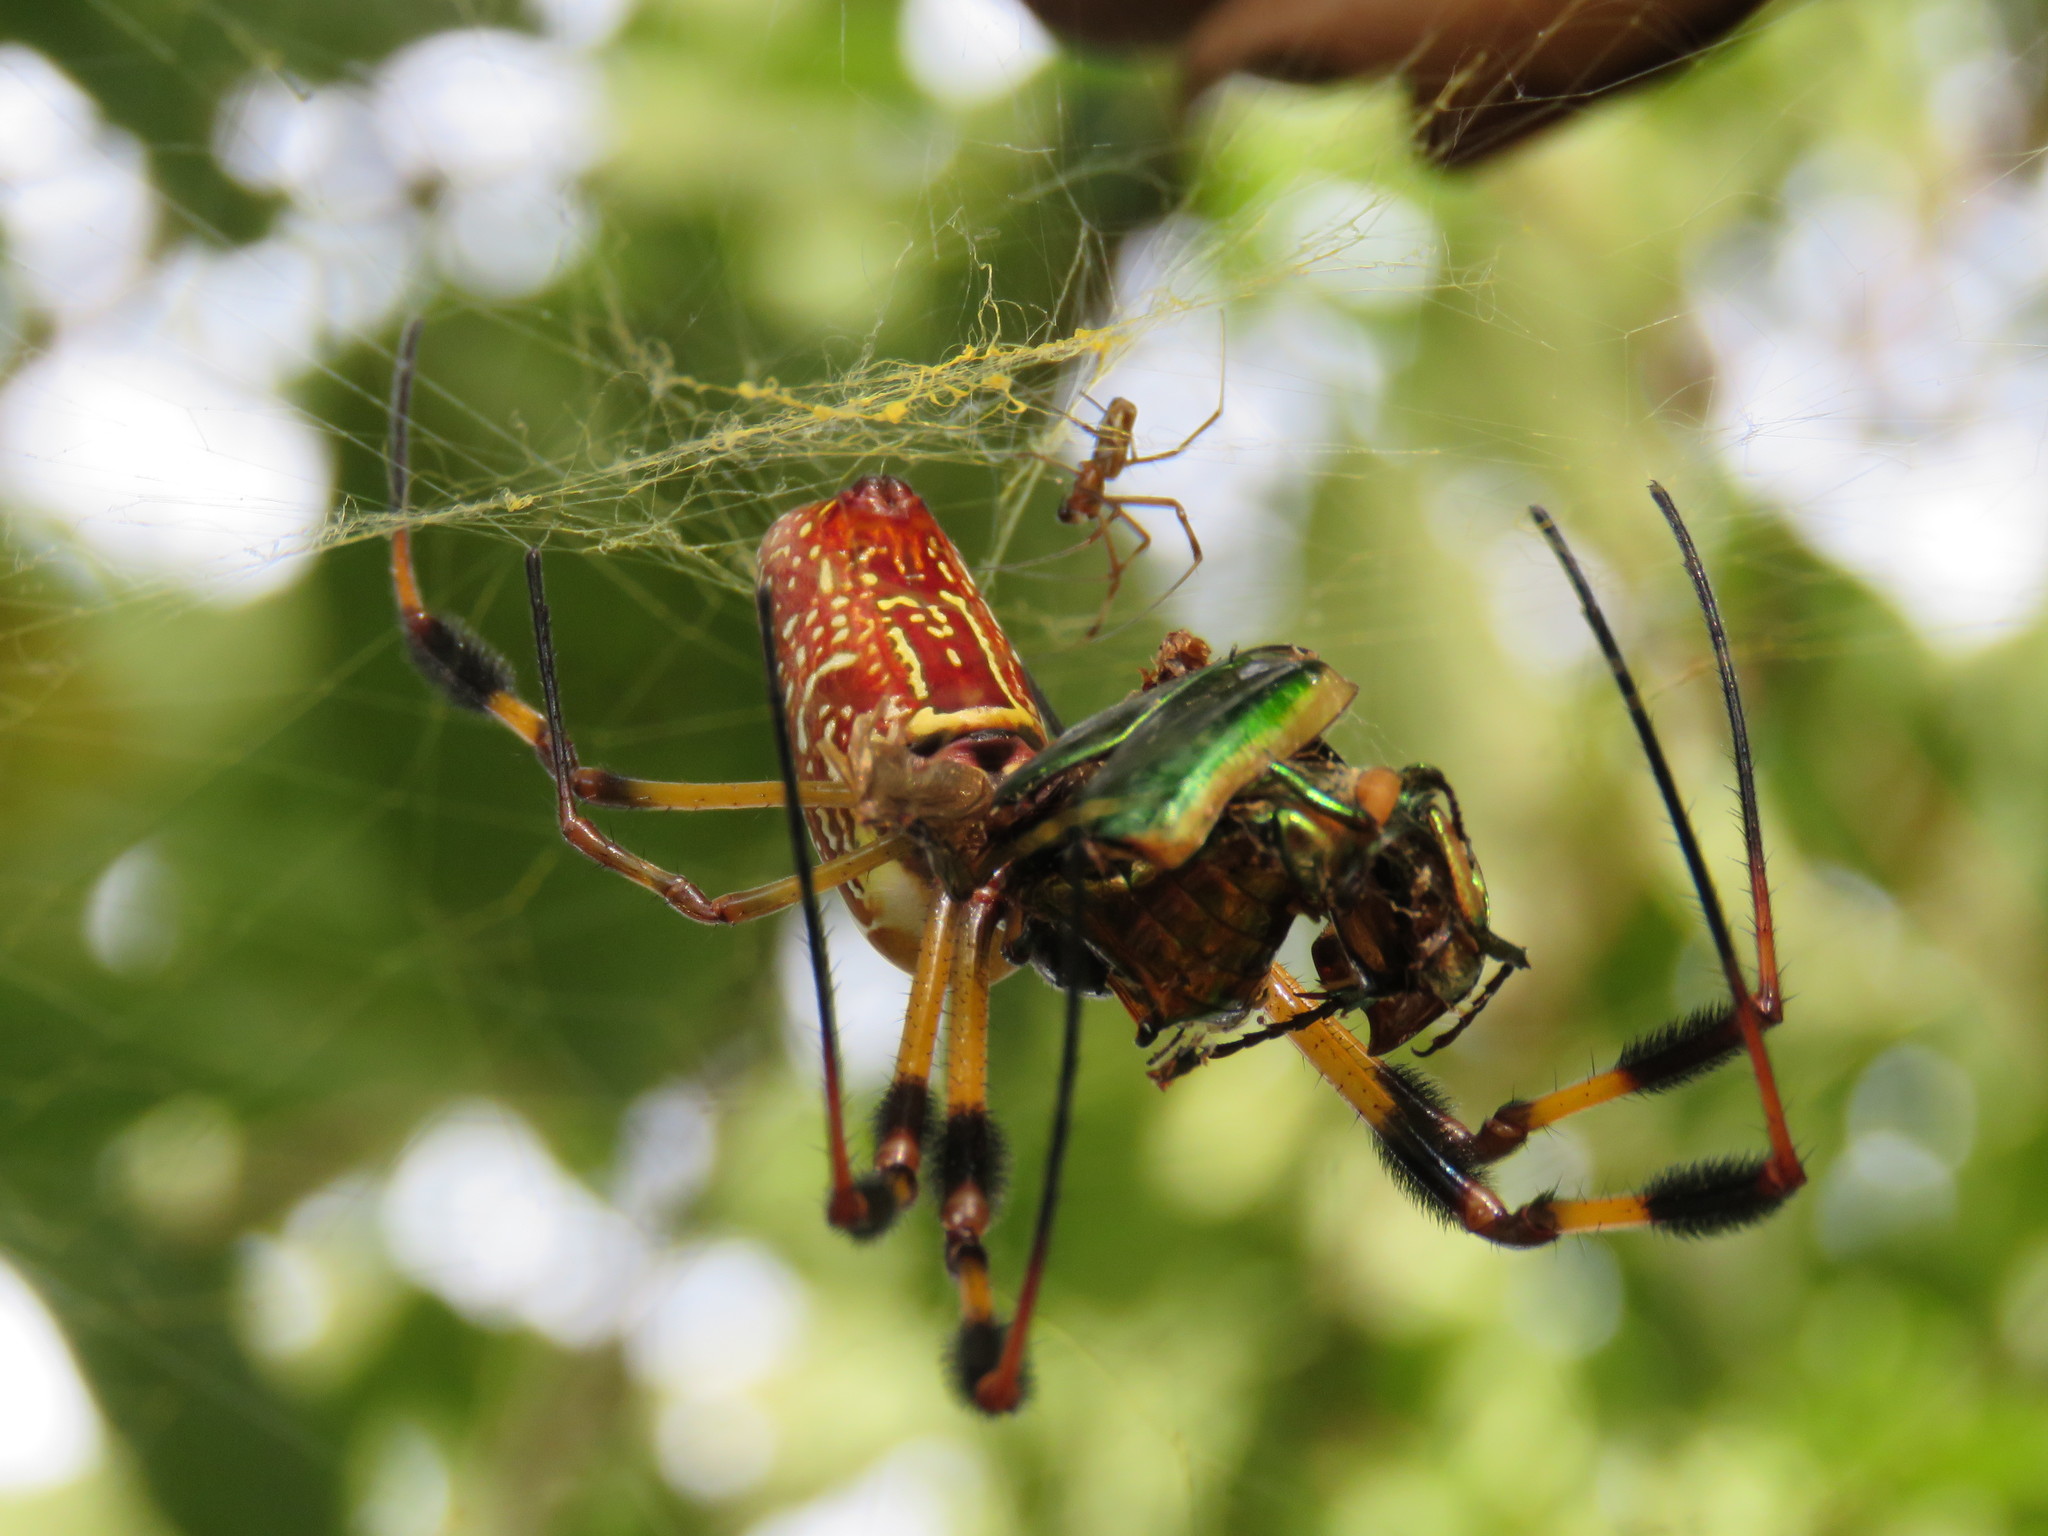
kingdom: Animalia
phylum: Arthropoda
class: Arachnida
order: Araneae
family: Araneidae
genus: Trichonephila
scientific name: Trichonephila clavipes
